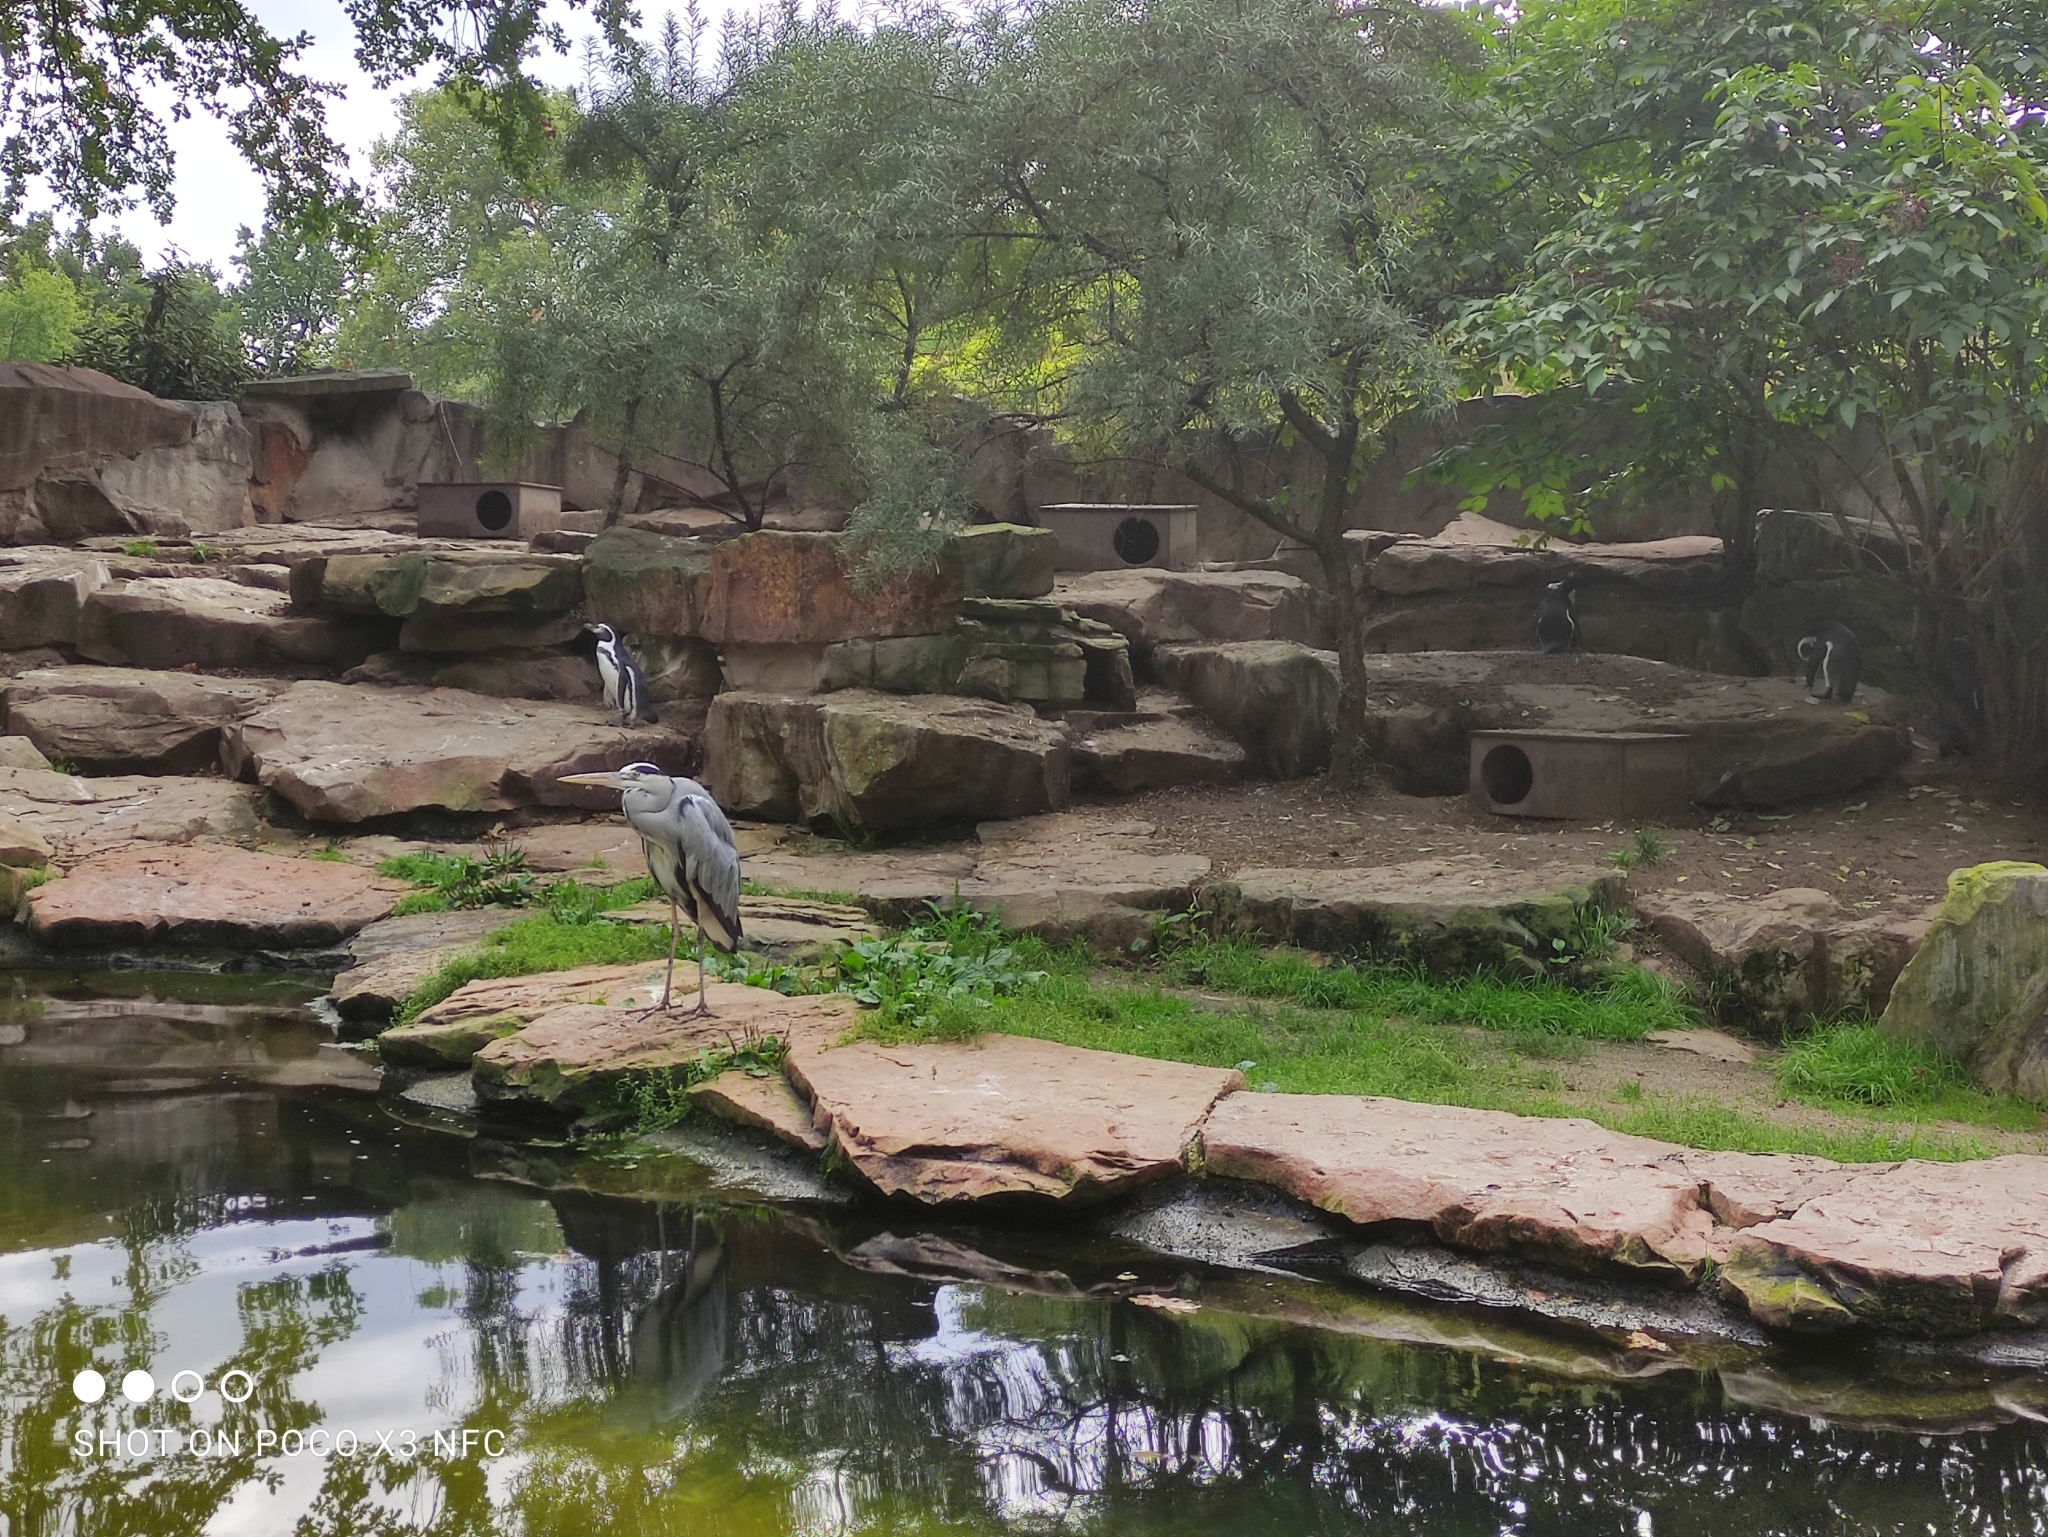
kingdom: Animalia
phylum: Chordata
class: Aves
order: Pelecaniformes
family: Ardeidae
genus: Ardea
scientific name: Ardea cinerea
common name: Grey heron
